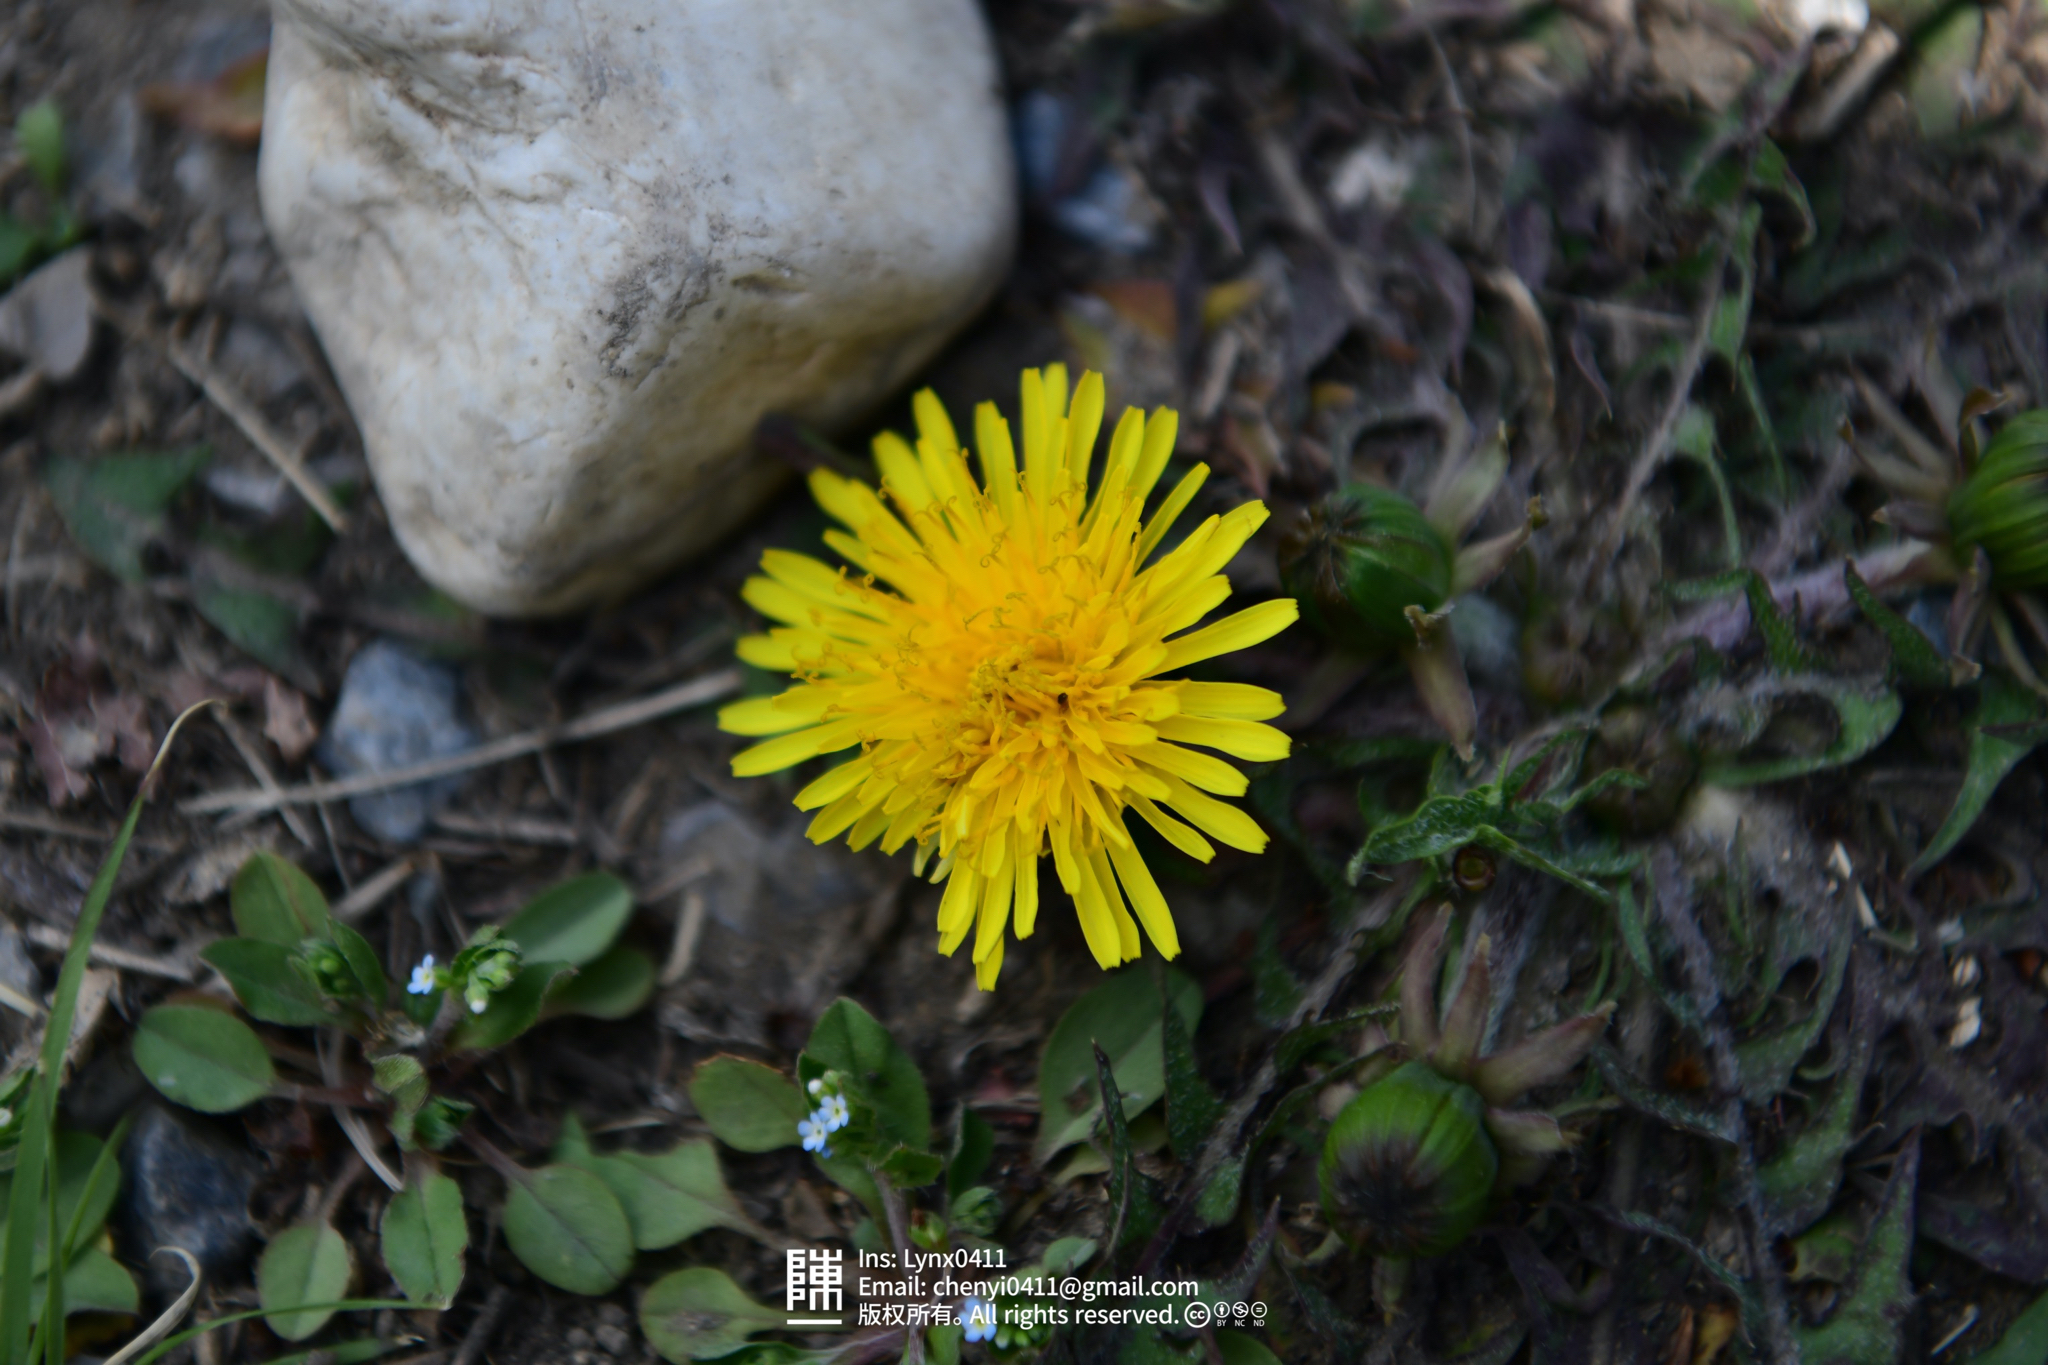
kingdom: Plantae
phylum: Tracheophyta
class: Magnoliopsida
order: Asterales
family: Asteraceae
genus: Taraxacum
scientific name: Taraxacum officinale
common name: Common dandelion
